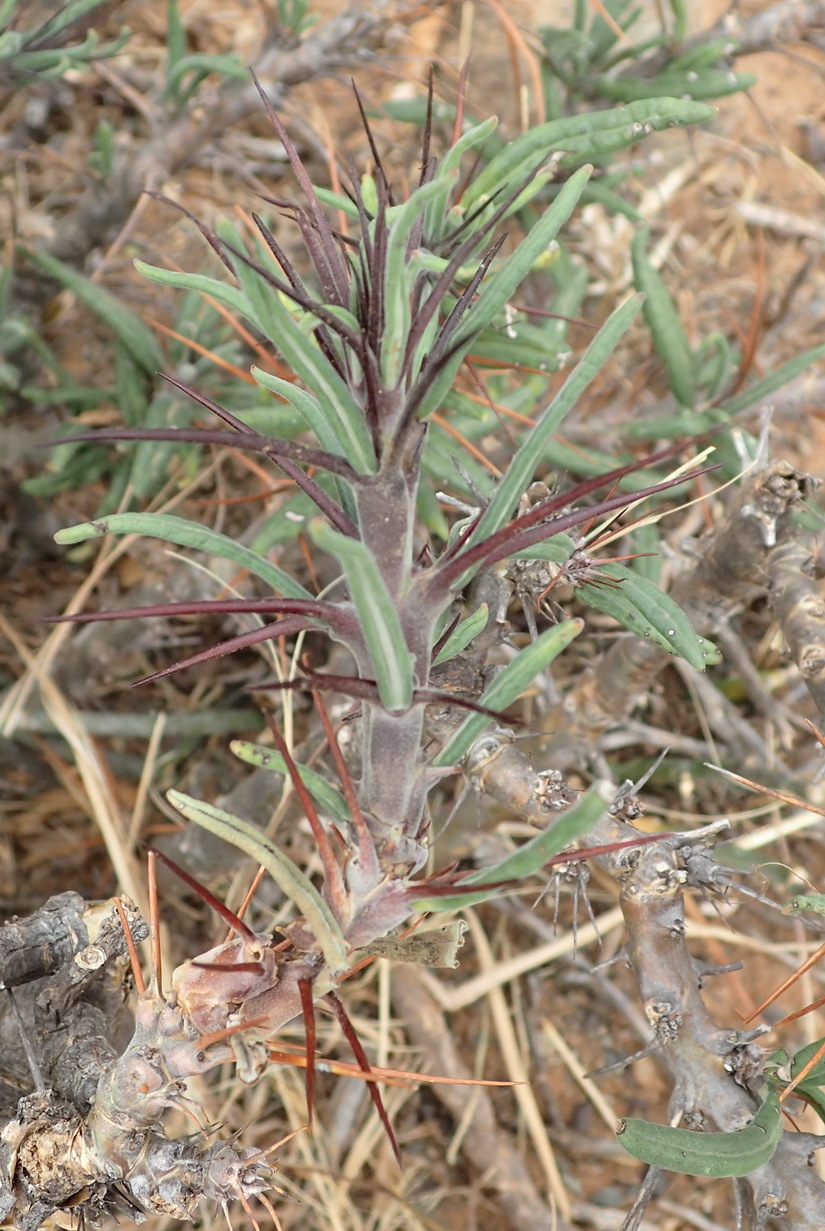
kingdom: Plantae
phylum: Tracheophyta
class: Magnoliopsida
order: Gentianales
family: Apocynaceae
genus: Pachypodium
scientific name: Pachypodium succulentum
